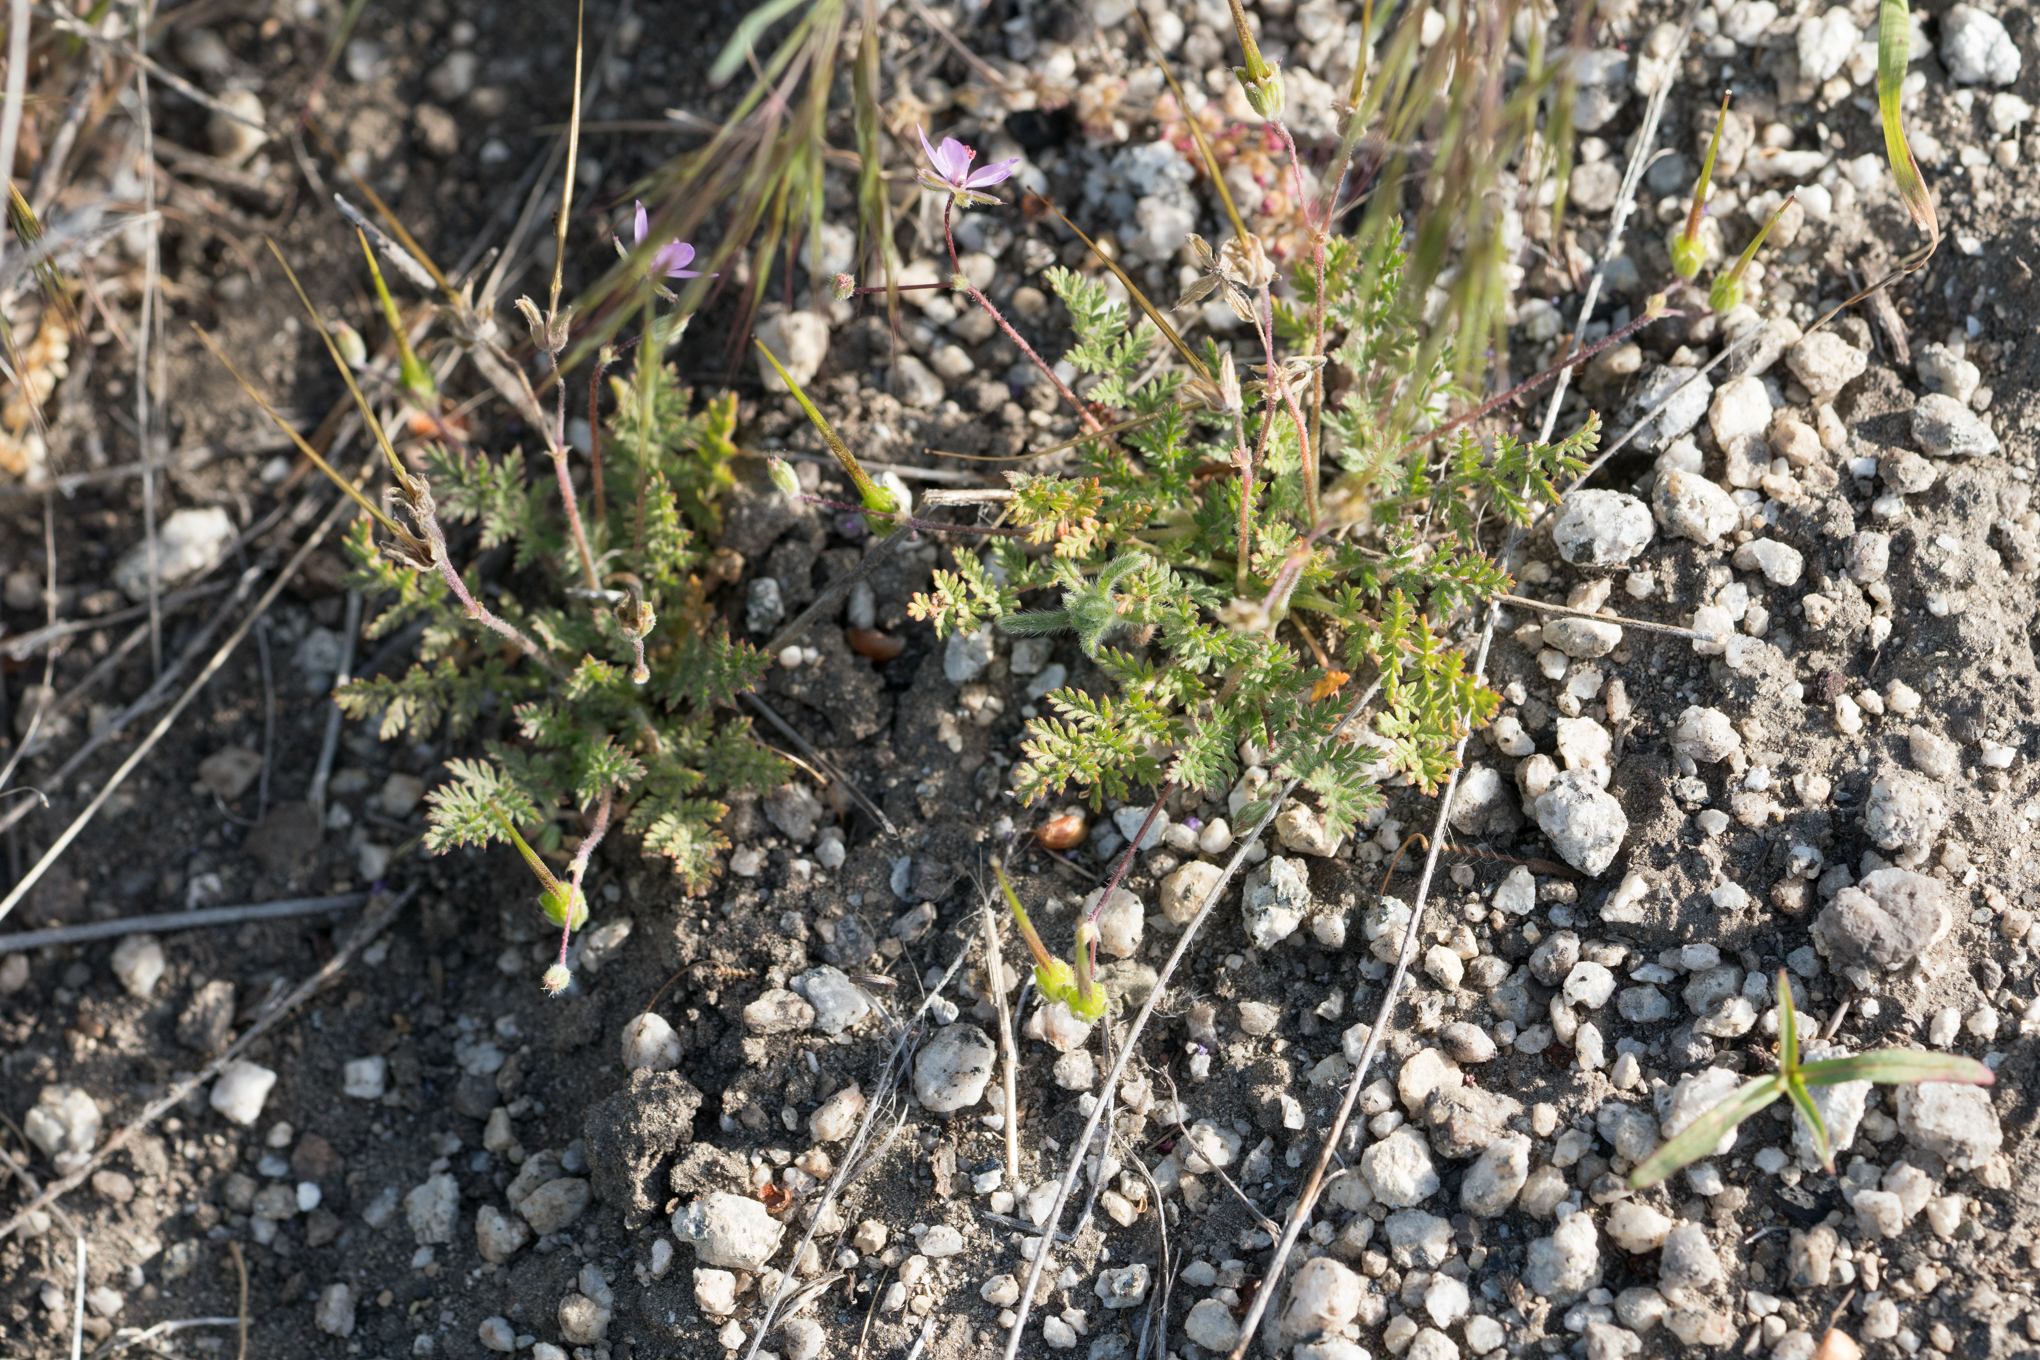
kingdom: Plantae
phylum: Tracheophyta
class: Magnoliopsida
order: Geraniales
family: Geraniaceae
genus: Erodium
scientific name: Erodium cicutarium
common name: Common stork's-bill
